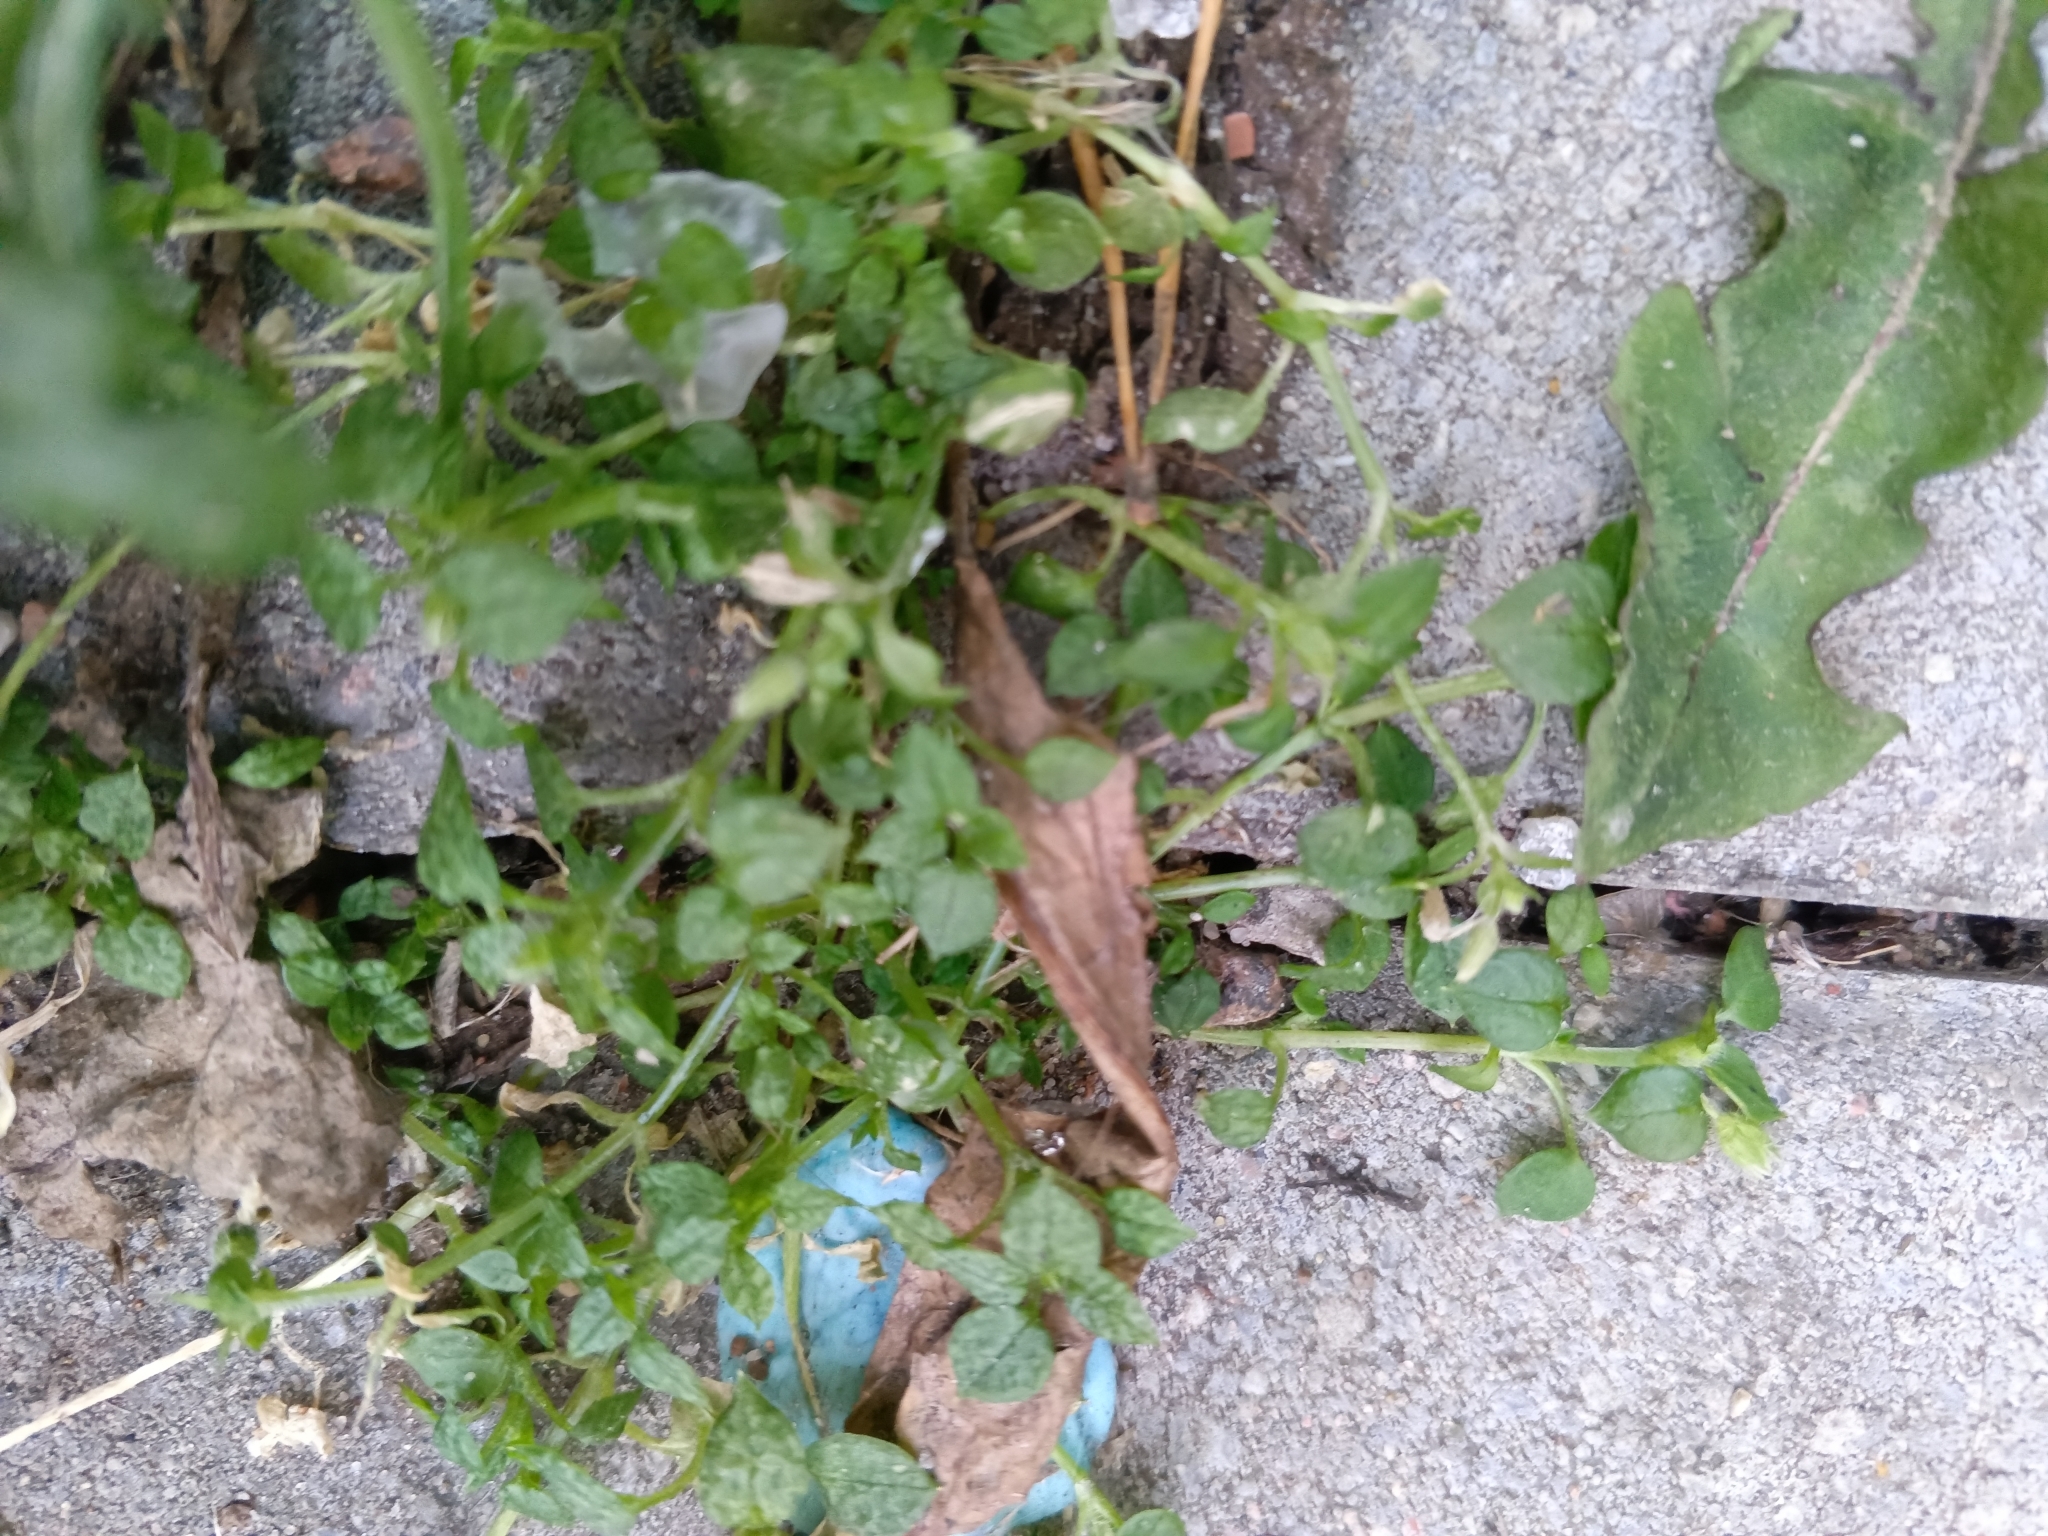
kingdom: Plantae
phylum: Tracheophyta
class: Magnoliopsida
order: Caryophyllales
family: Caryophyllaceae
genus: Stellaria
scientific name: Stellaria media
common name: Common chickweed
